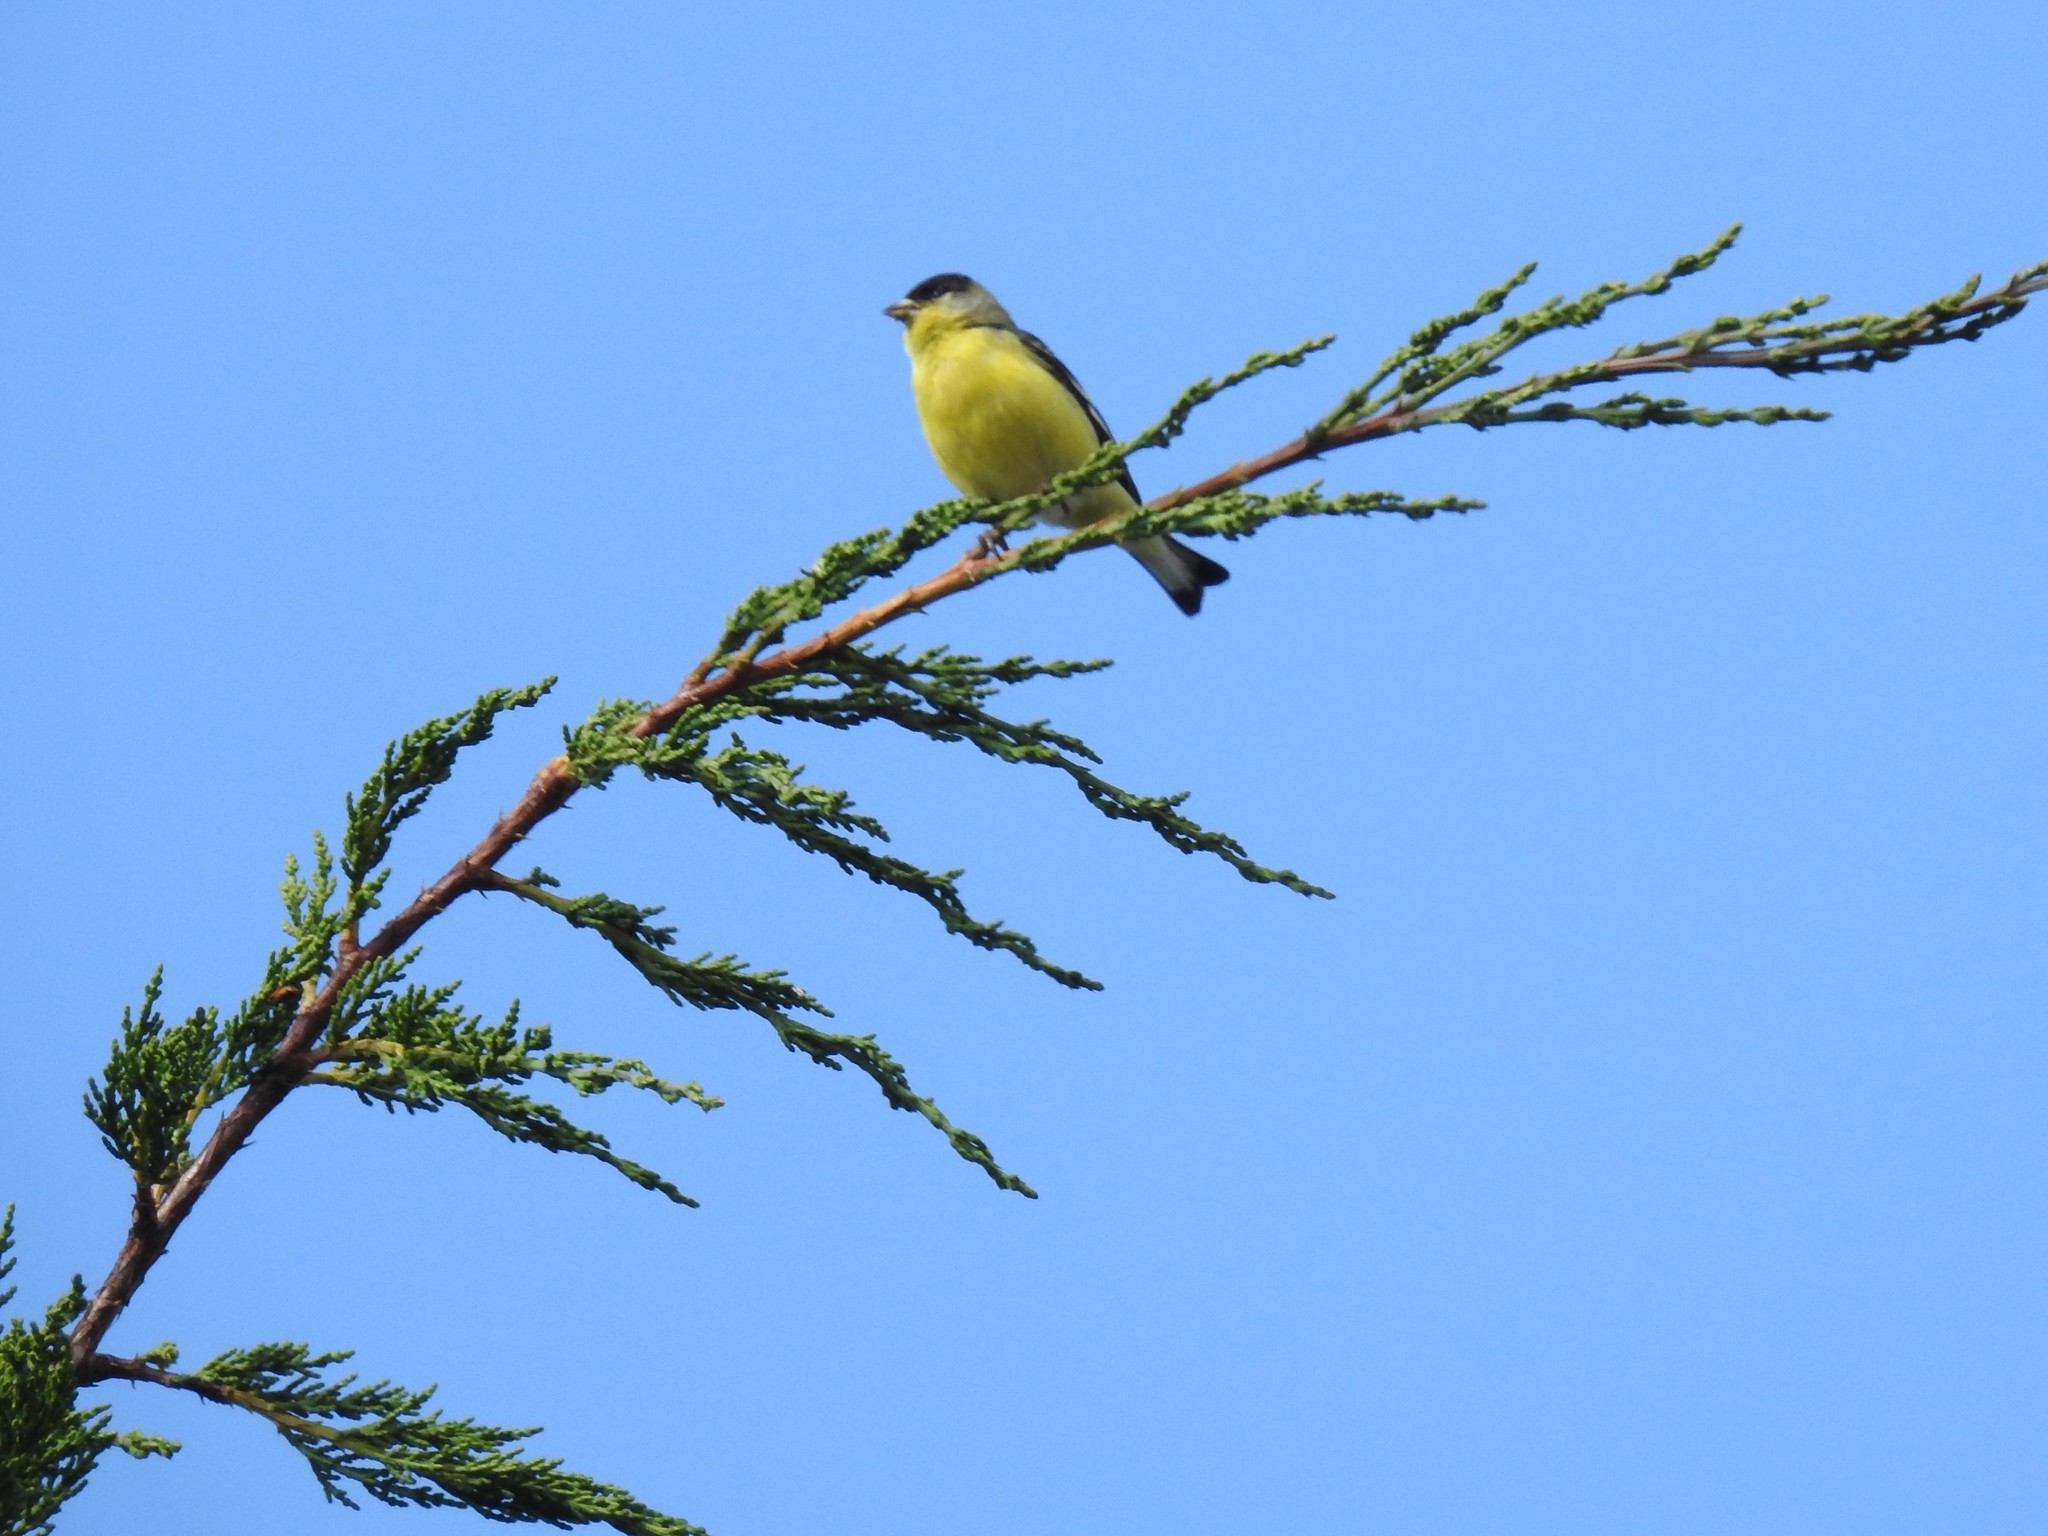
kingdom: Animalia
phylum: Chordata
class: Aves
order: Passeriformes
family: Fringillidae
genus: Spinus
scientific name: Spinus psaltria
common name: Lesser goldfinch
